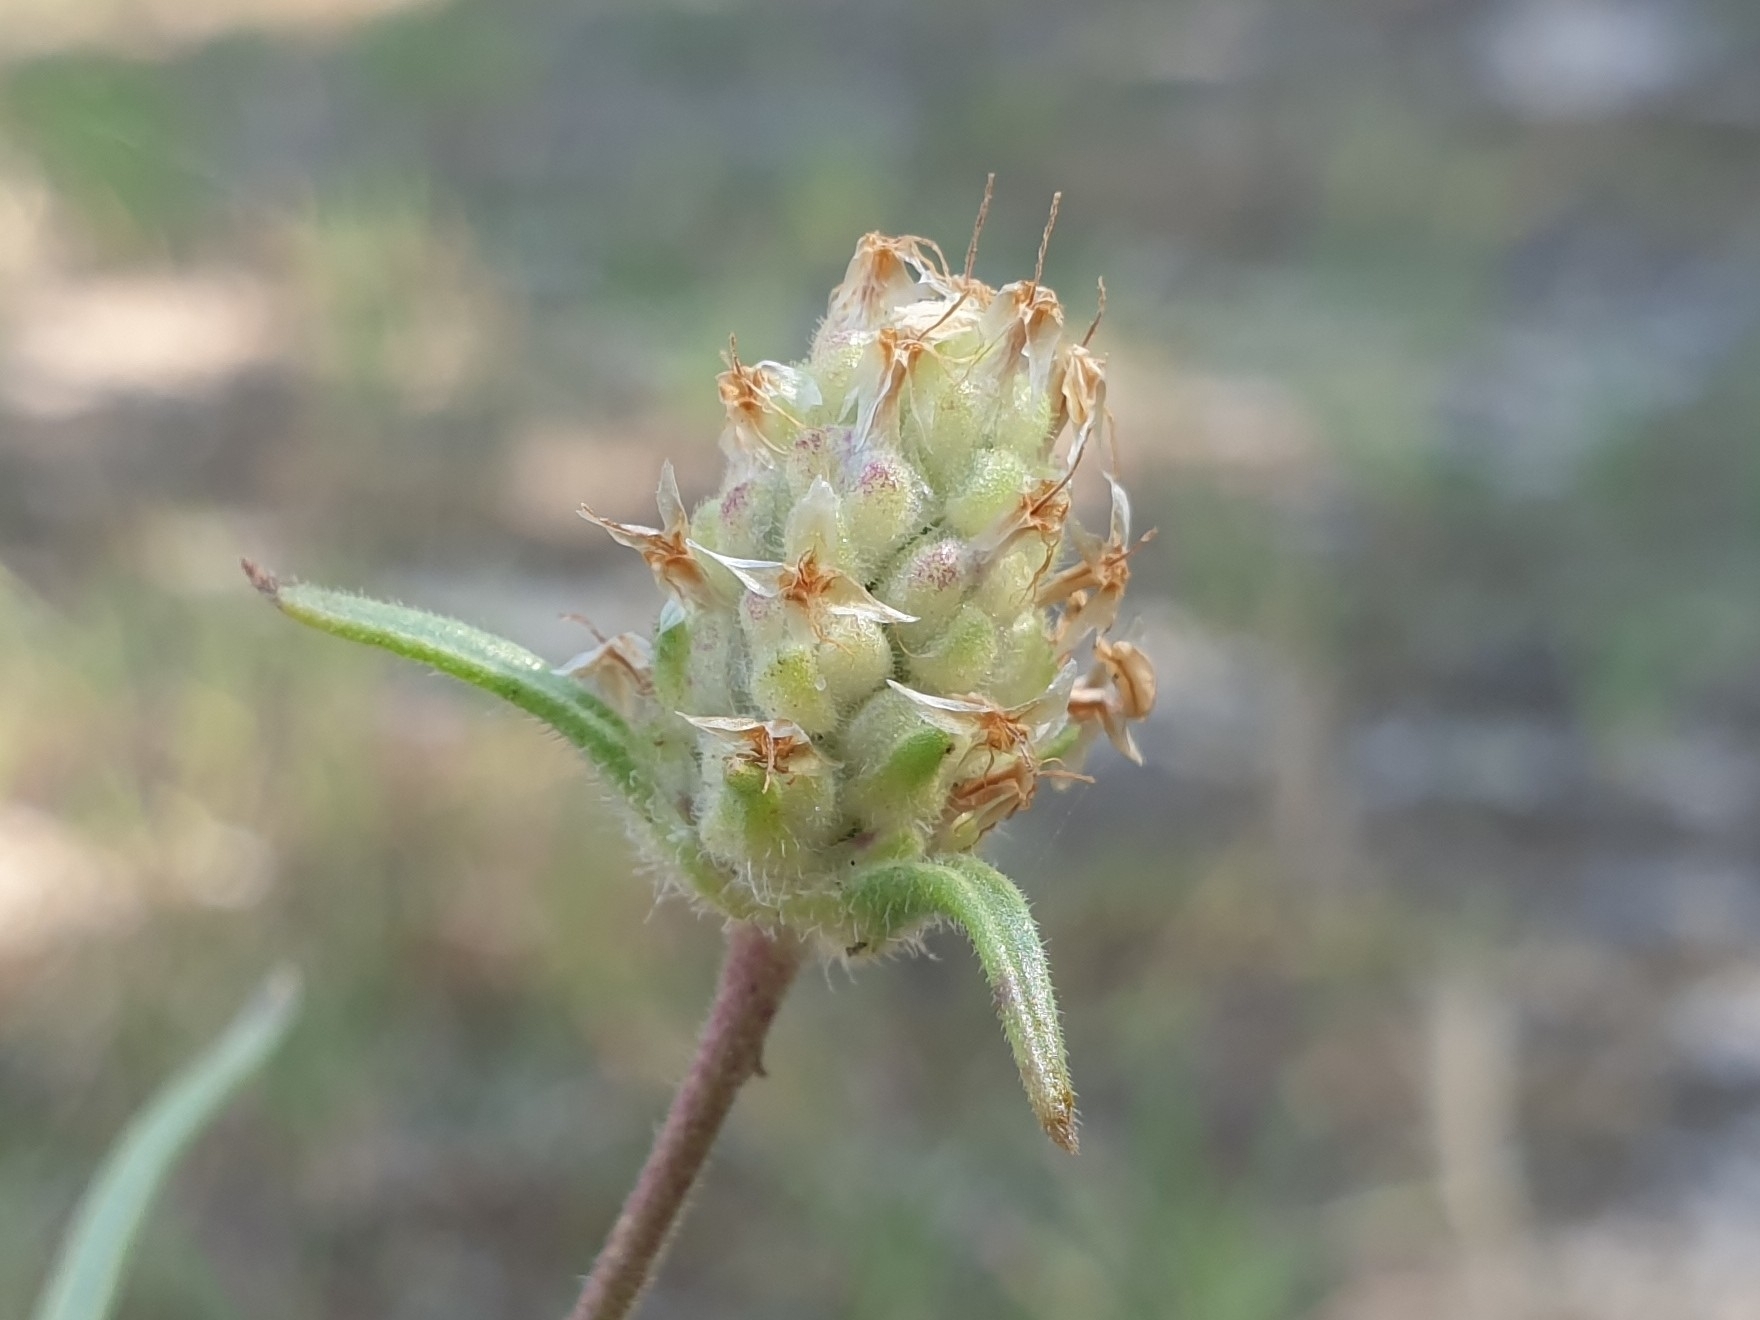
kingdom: Plantae
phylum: Tracheophyta
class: Magnoliopsida
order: Lamiales
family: Plantaginaceae
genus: Plantago
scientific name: Plantago arenaria
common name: Branched plantain
